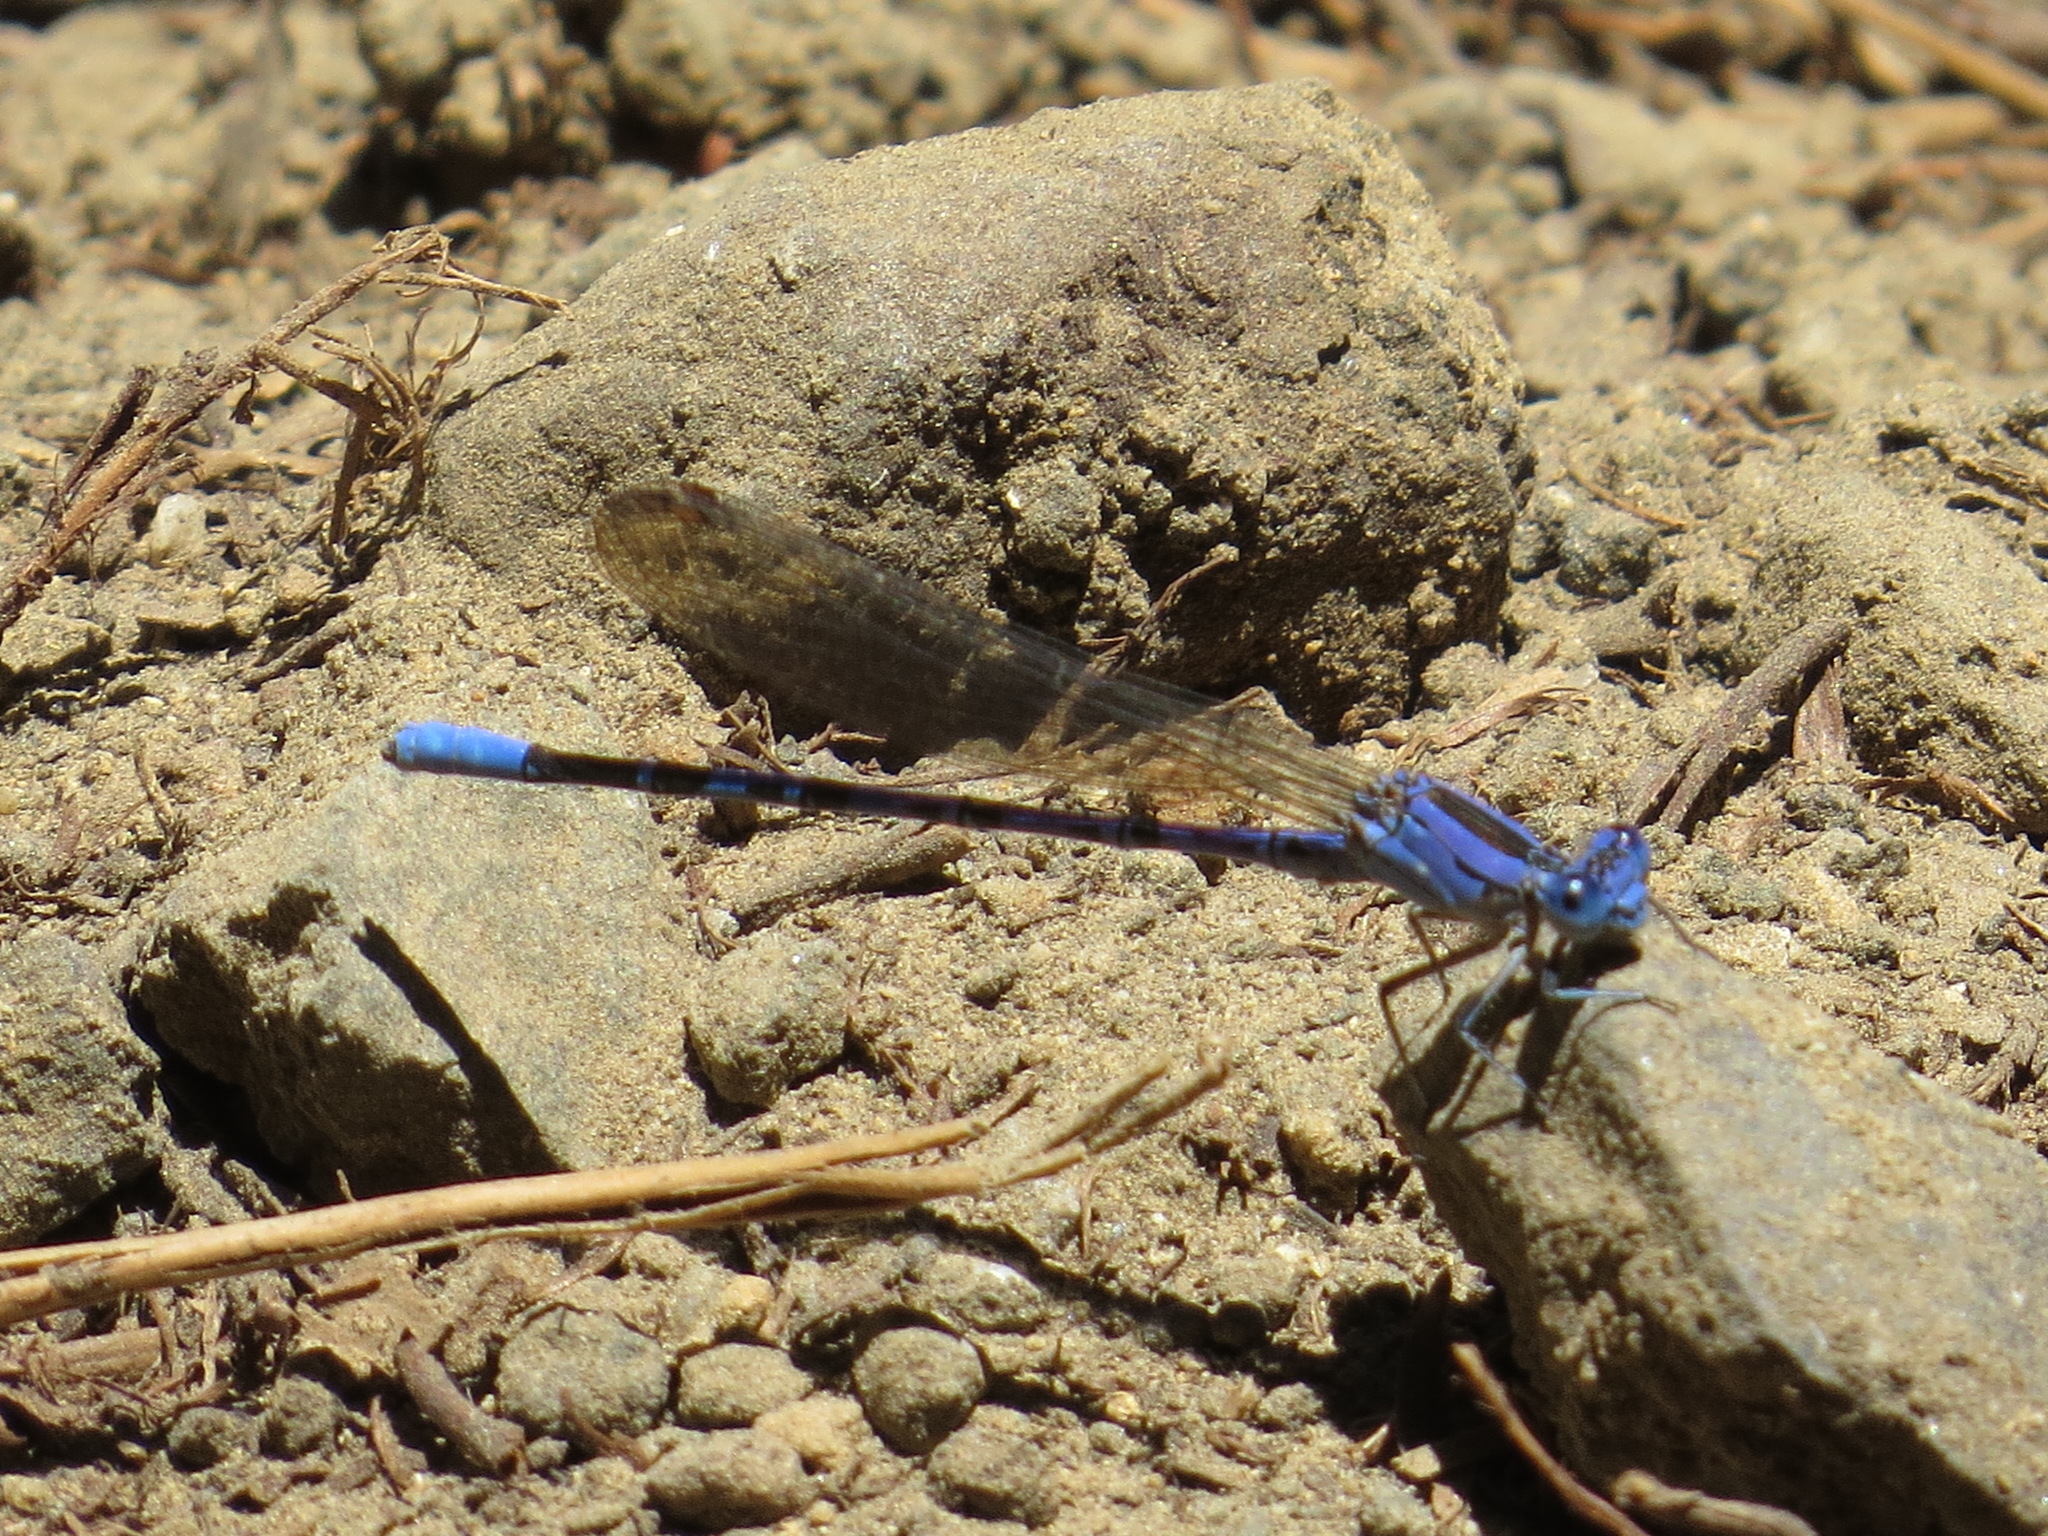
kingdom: Animalia
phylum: Arthropoda
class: Insecta
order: Odonata
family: Coenagrionidae
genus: Argia
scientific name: Argia vivida
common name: Vivid dancer
